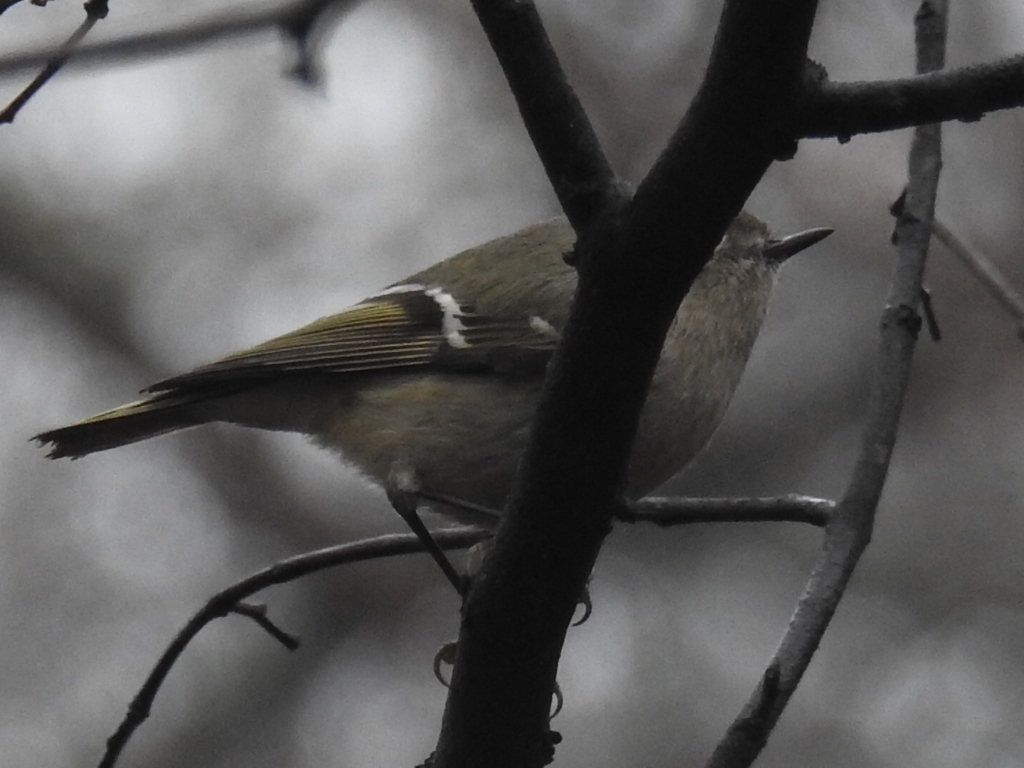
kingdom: Animalia
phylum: Chordata
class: Aves
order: Passeriformes
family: Regulidae
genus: Regulus
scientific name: Regulus calendula
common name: Ruby-crowned kinglet
